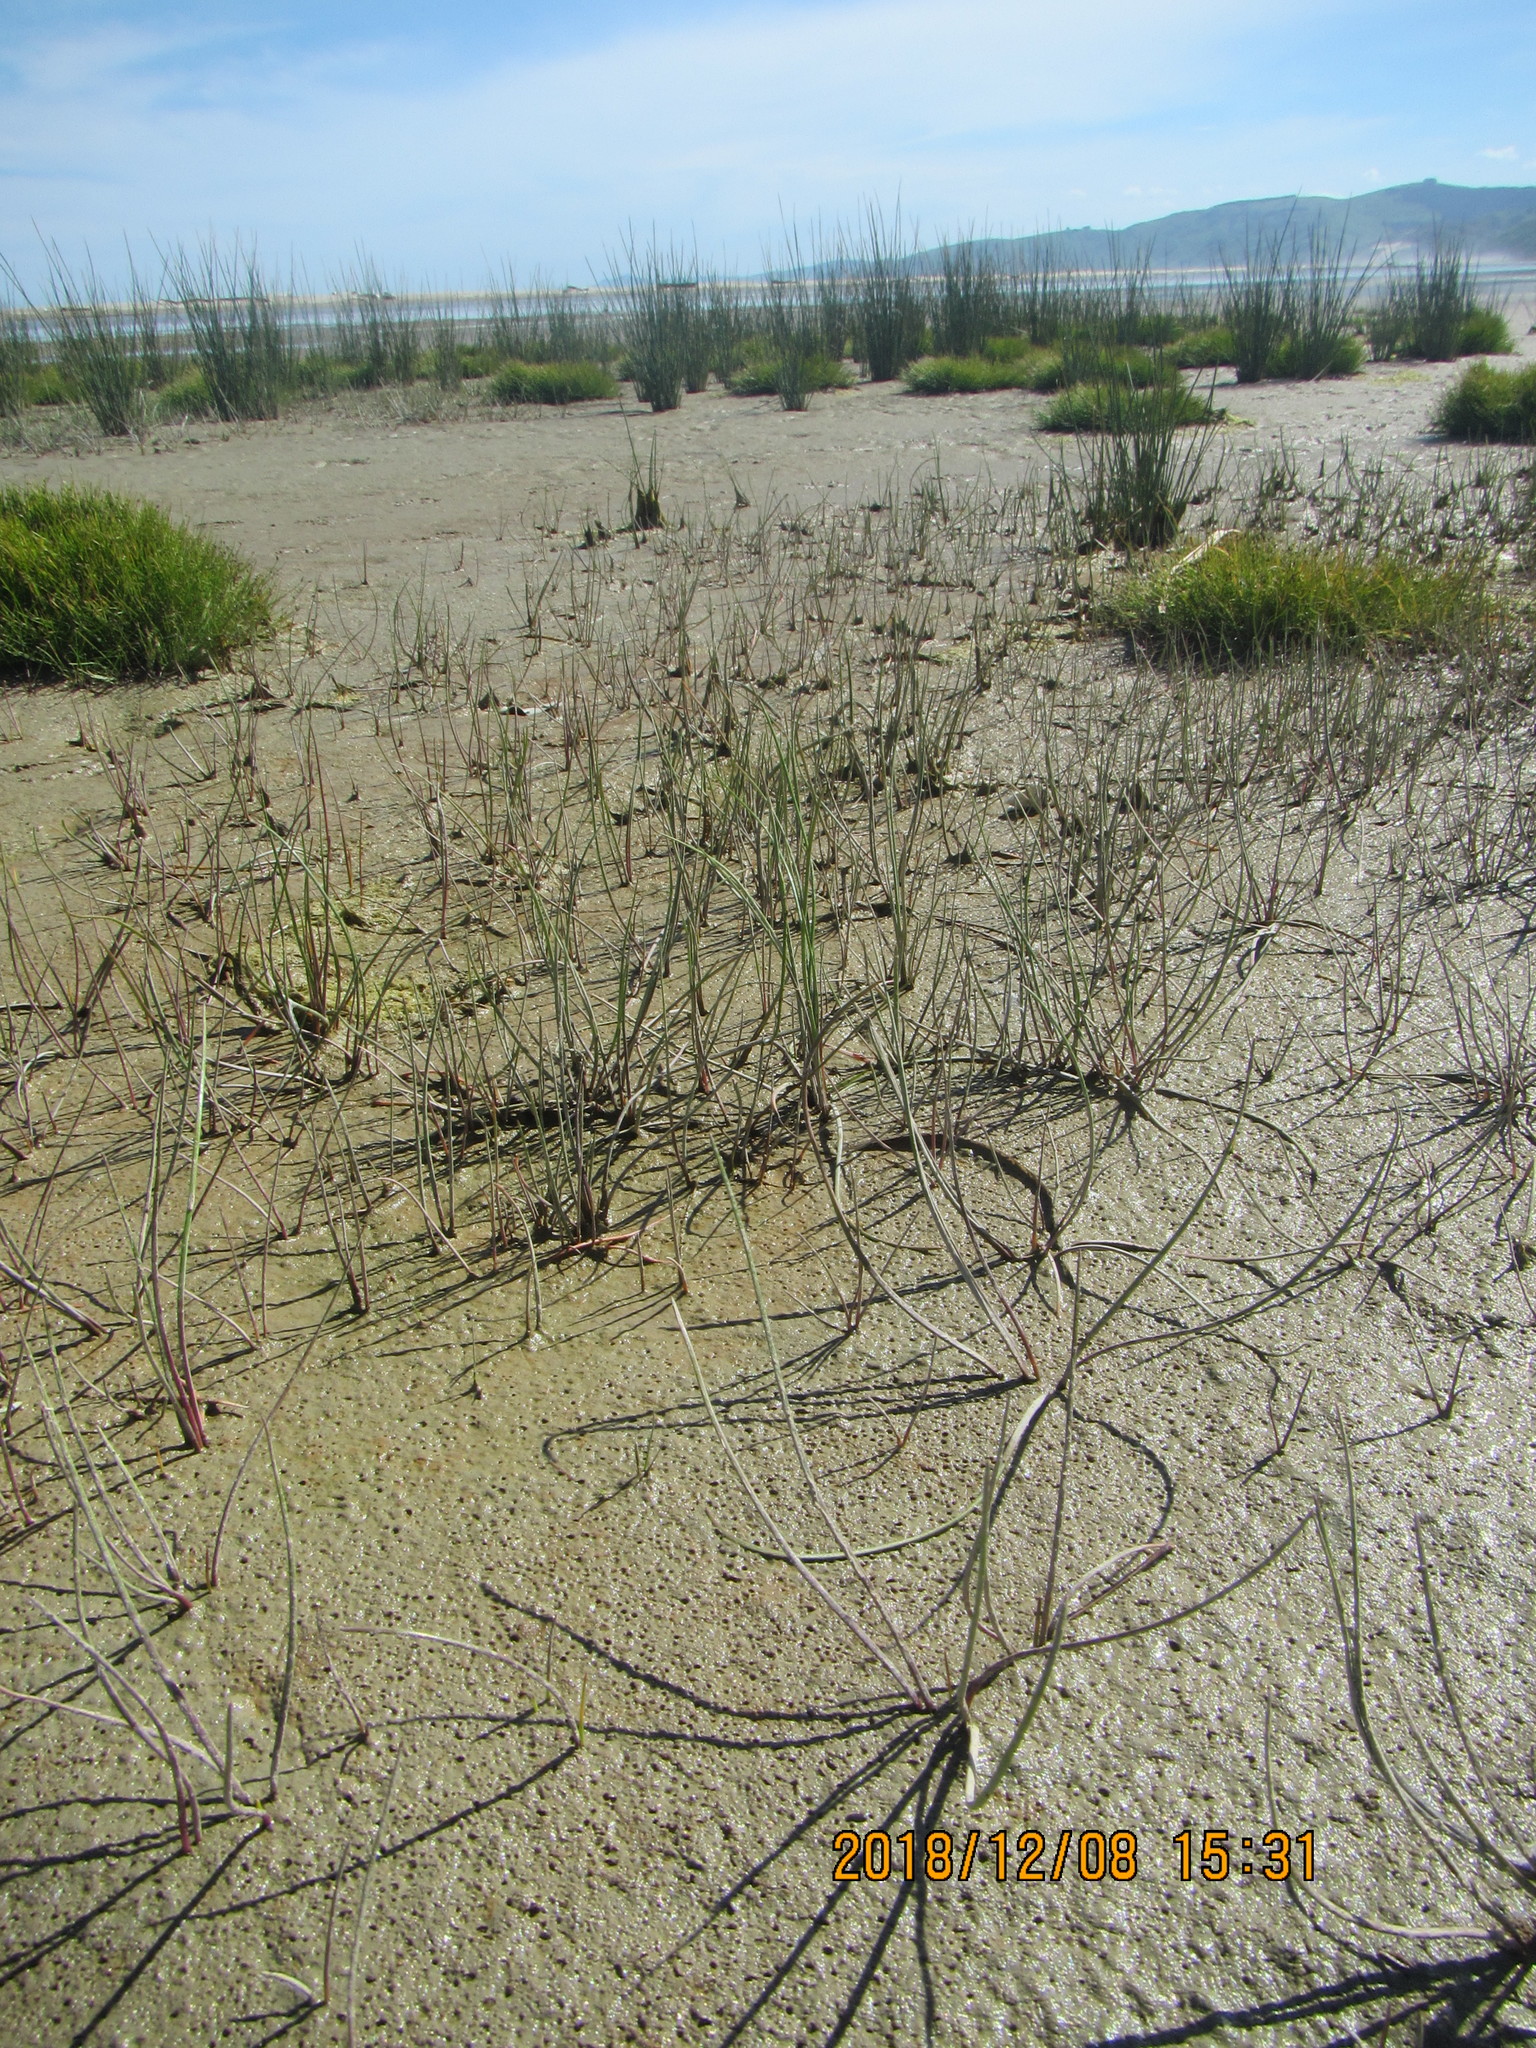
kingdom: Plantae
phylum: Tracheophyta
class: Liliopsida
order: Alismatales
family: Juncaginaceae
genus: Triglochin
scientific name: Triglochin striata
